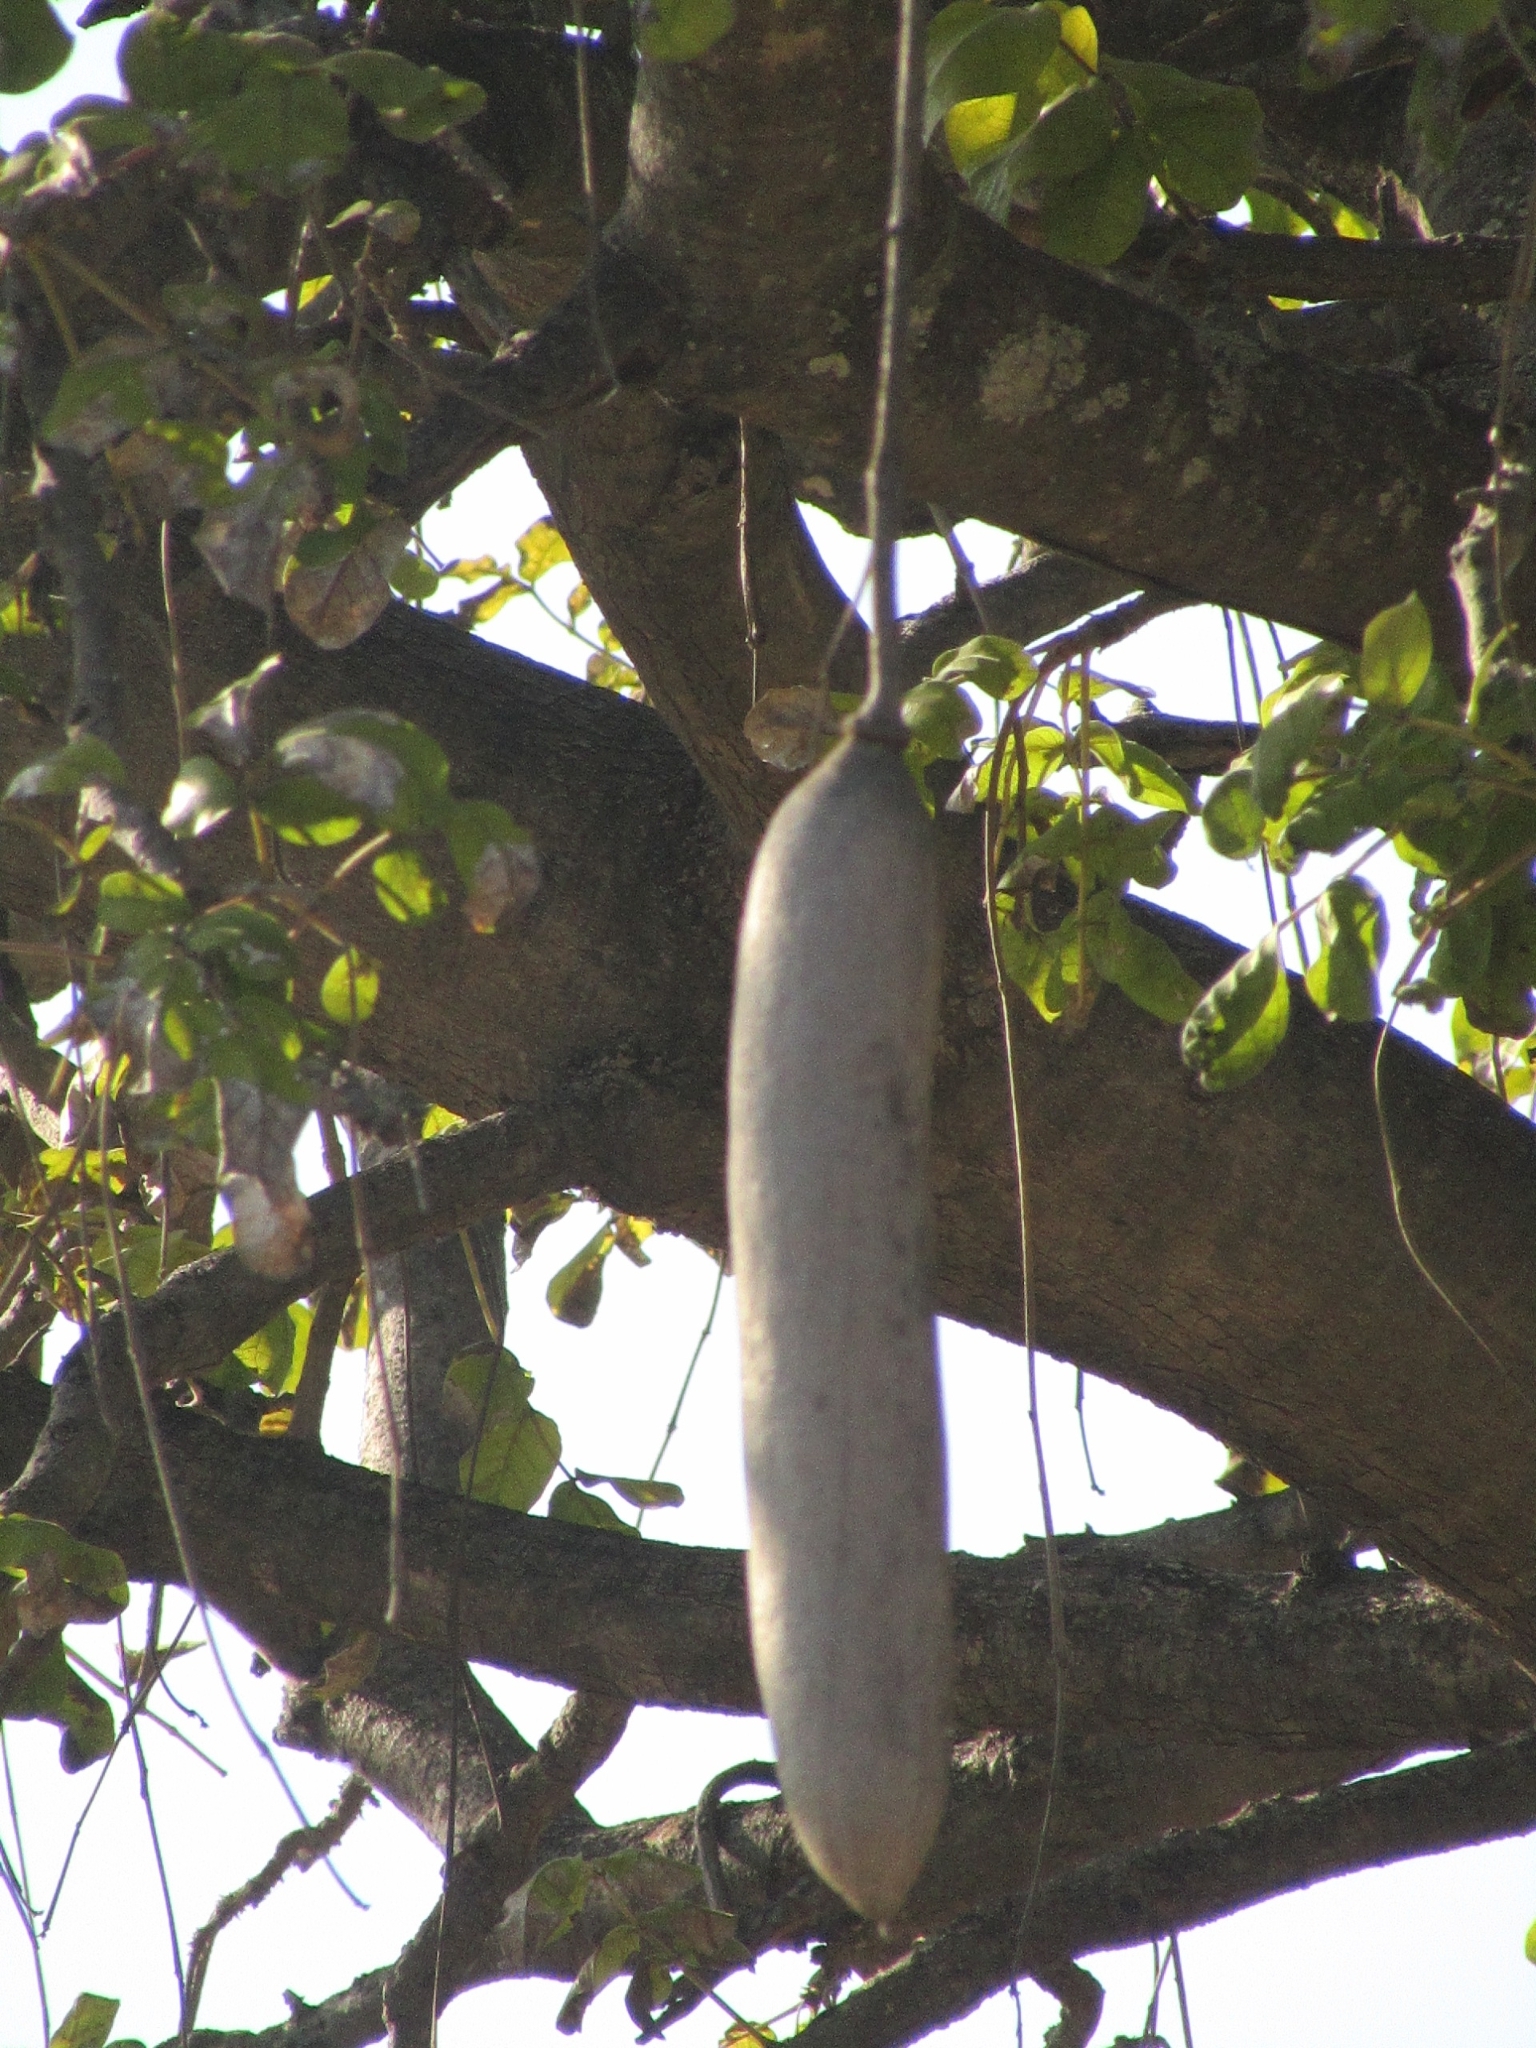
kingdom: Plantae
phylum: Tracheophyta
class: Magnoliopsida
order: Lamiales
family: Bignoniaceae
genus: Kigelia
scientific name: Kigelia africana
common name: Sausage tree
